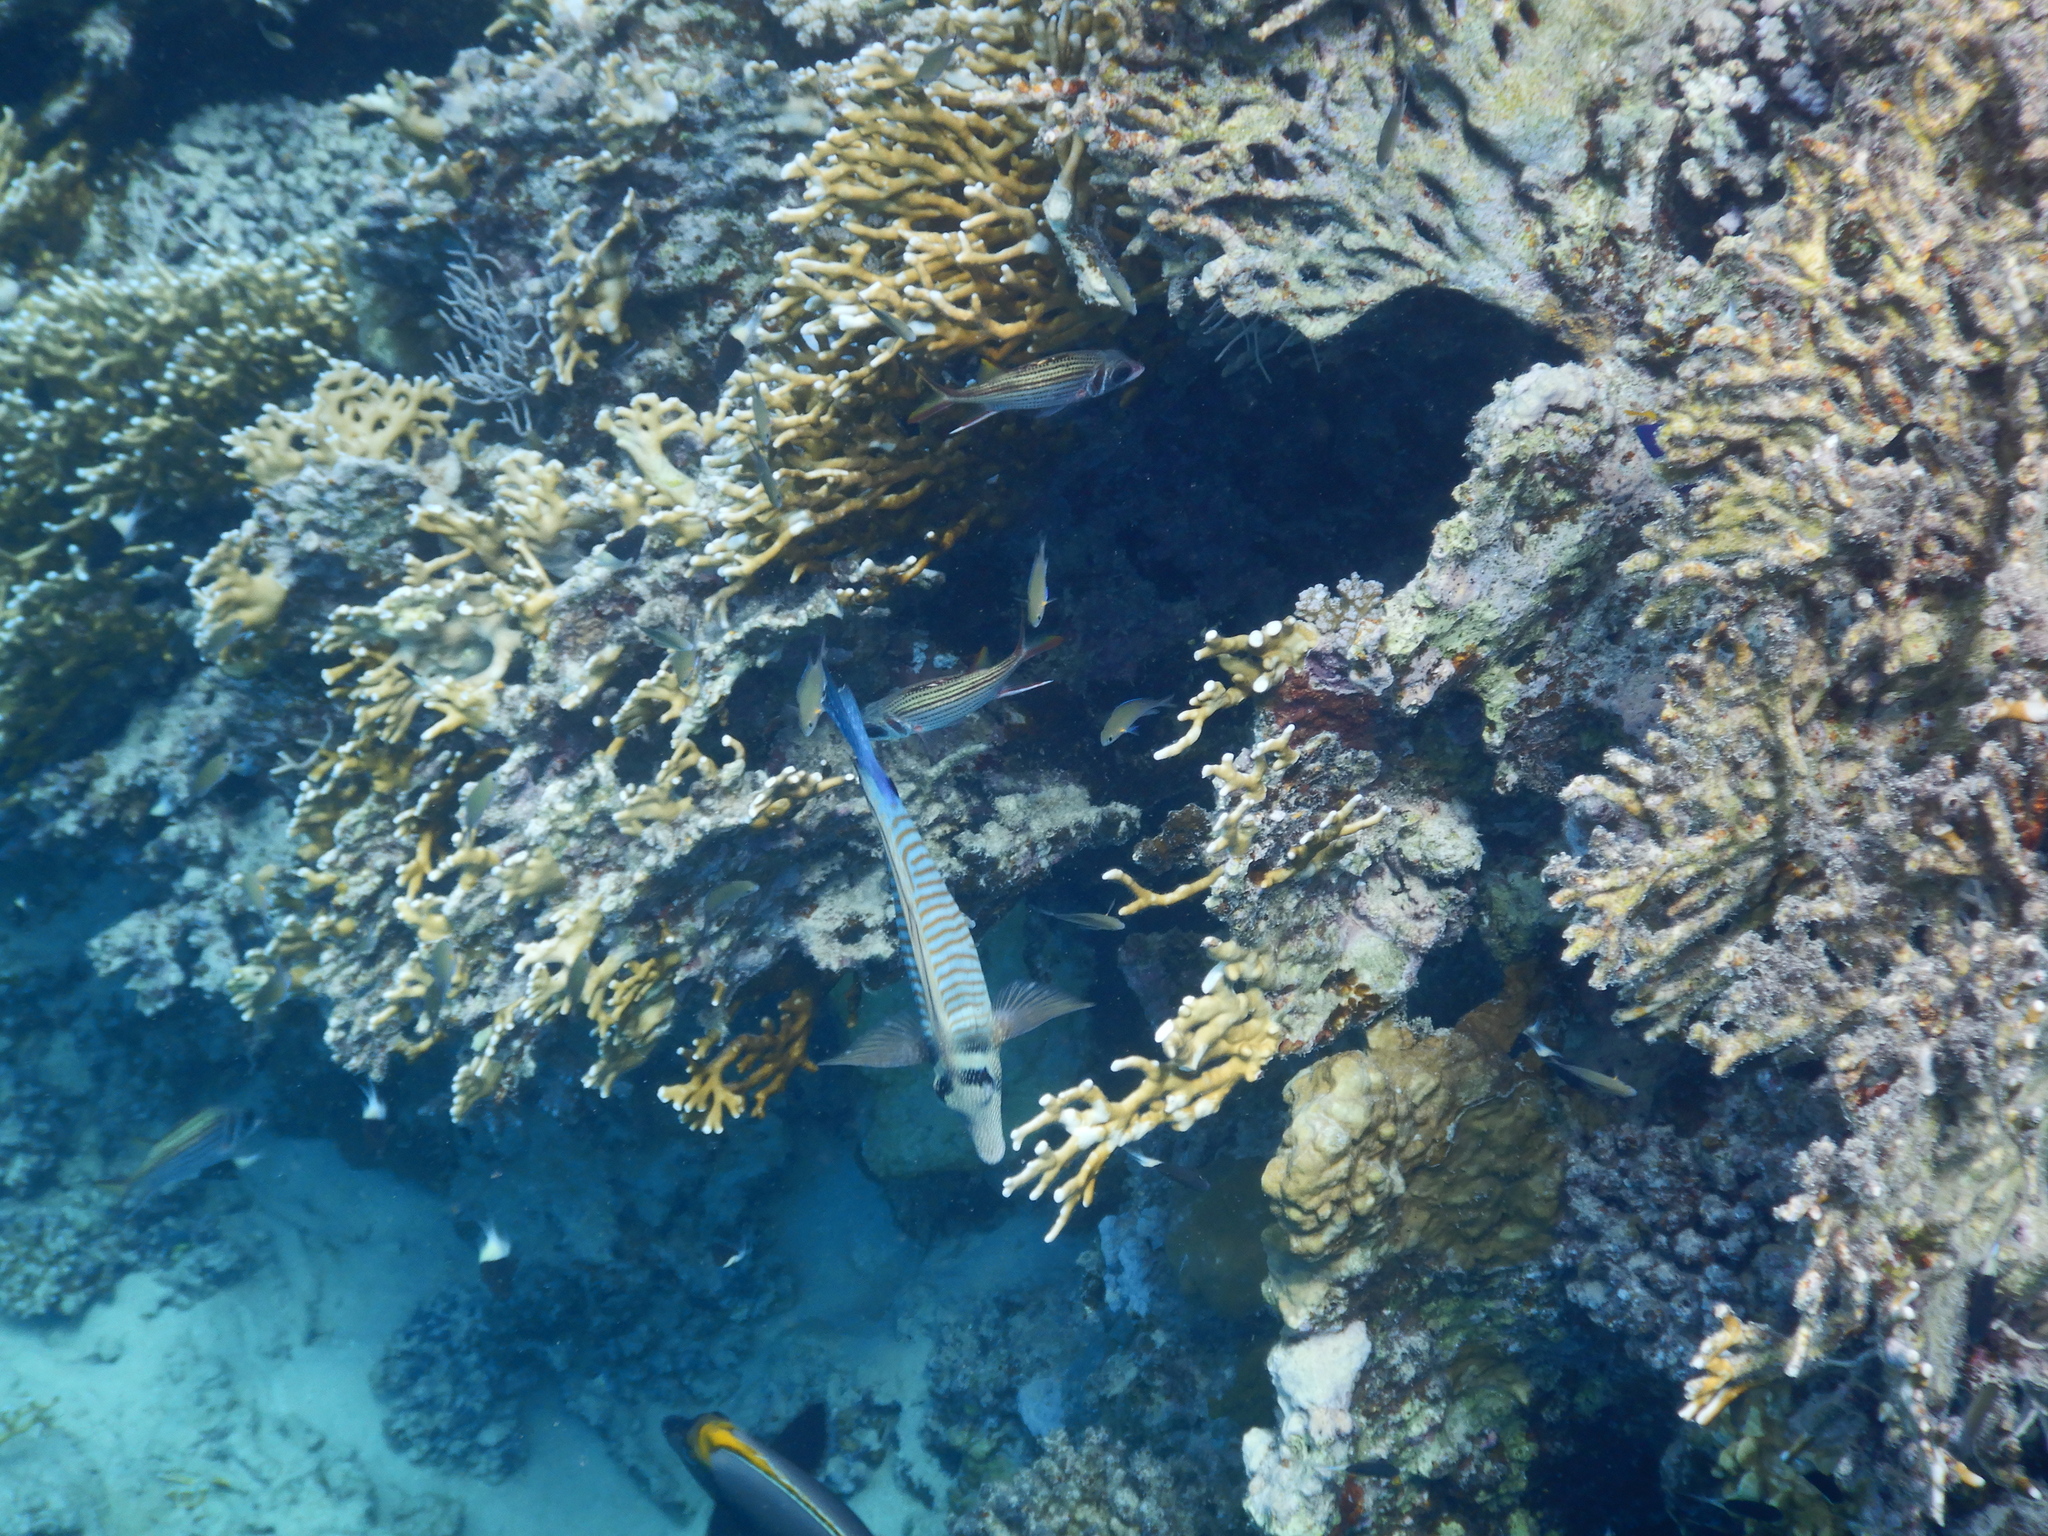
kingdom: Animalia
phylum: Chordata
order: Perciformes
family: Acanthuridae
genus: Zebrasoma
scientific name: Zebrasoma desjardinii
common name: Desjardin's sailfin tang
